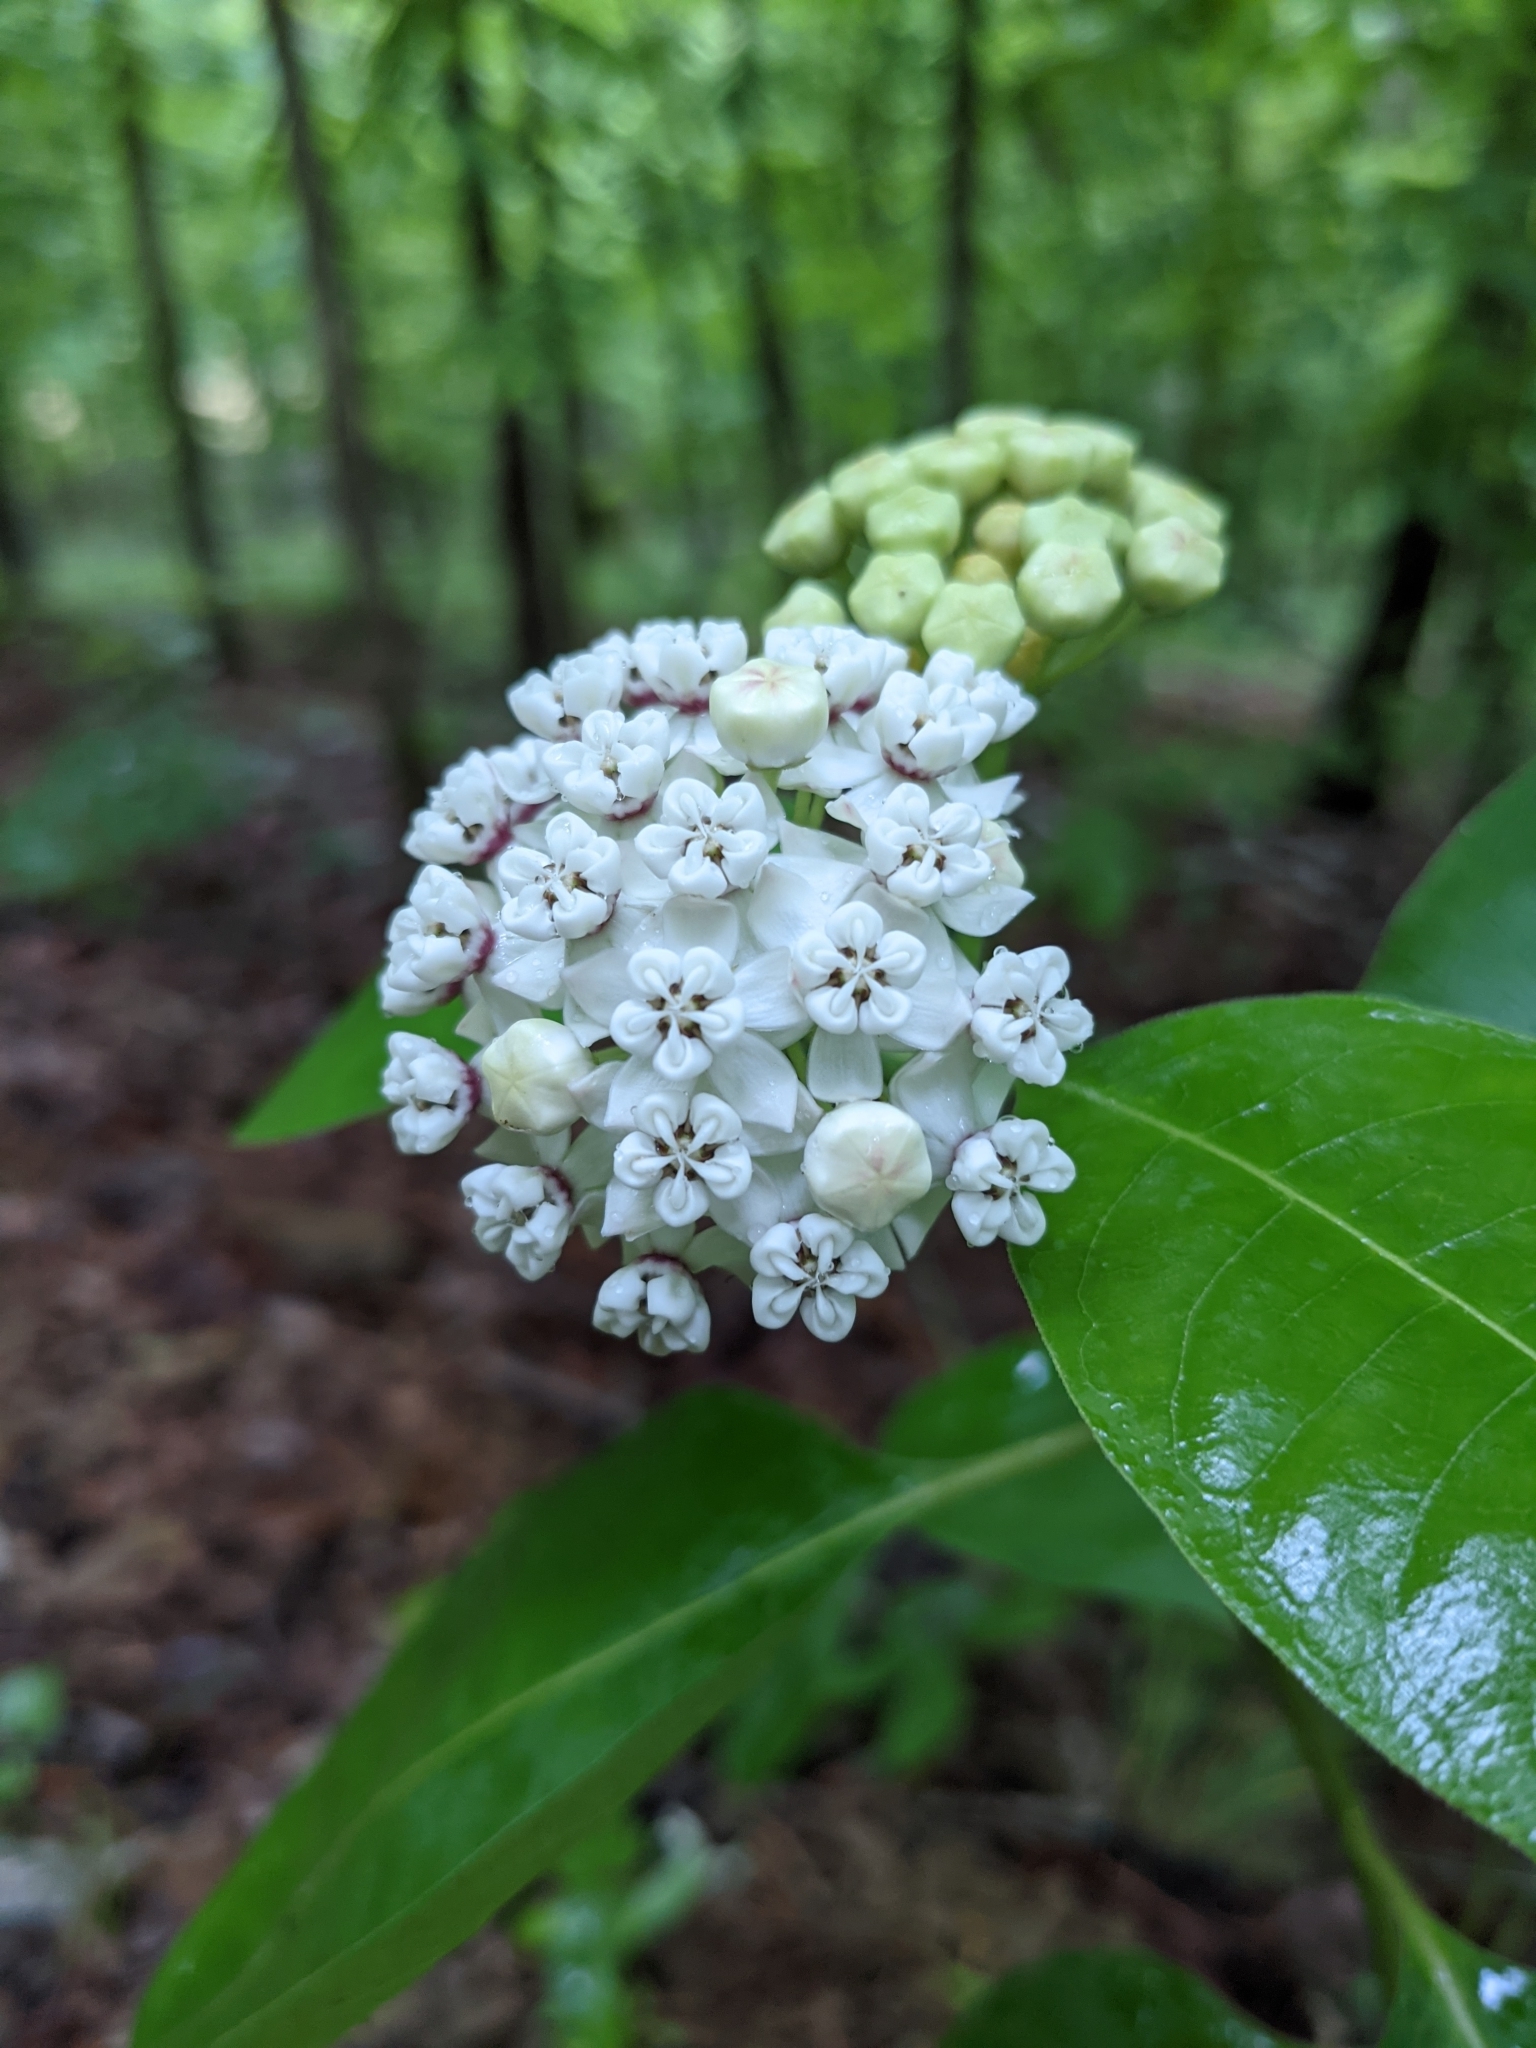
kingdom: Plantae
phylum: Tracheophyta
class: Magnoliopsida
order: Gentianales
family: Apocynaceae
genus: Asclepias
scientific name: Asclepias variegata
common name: Variegated milkweed
